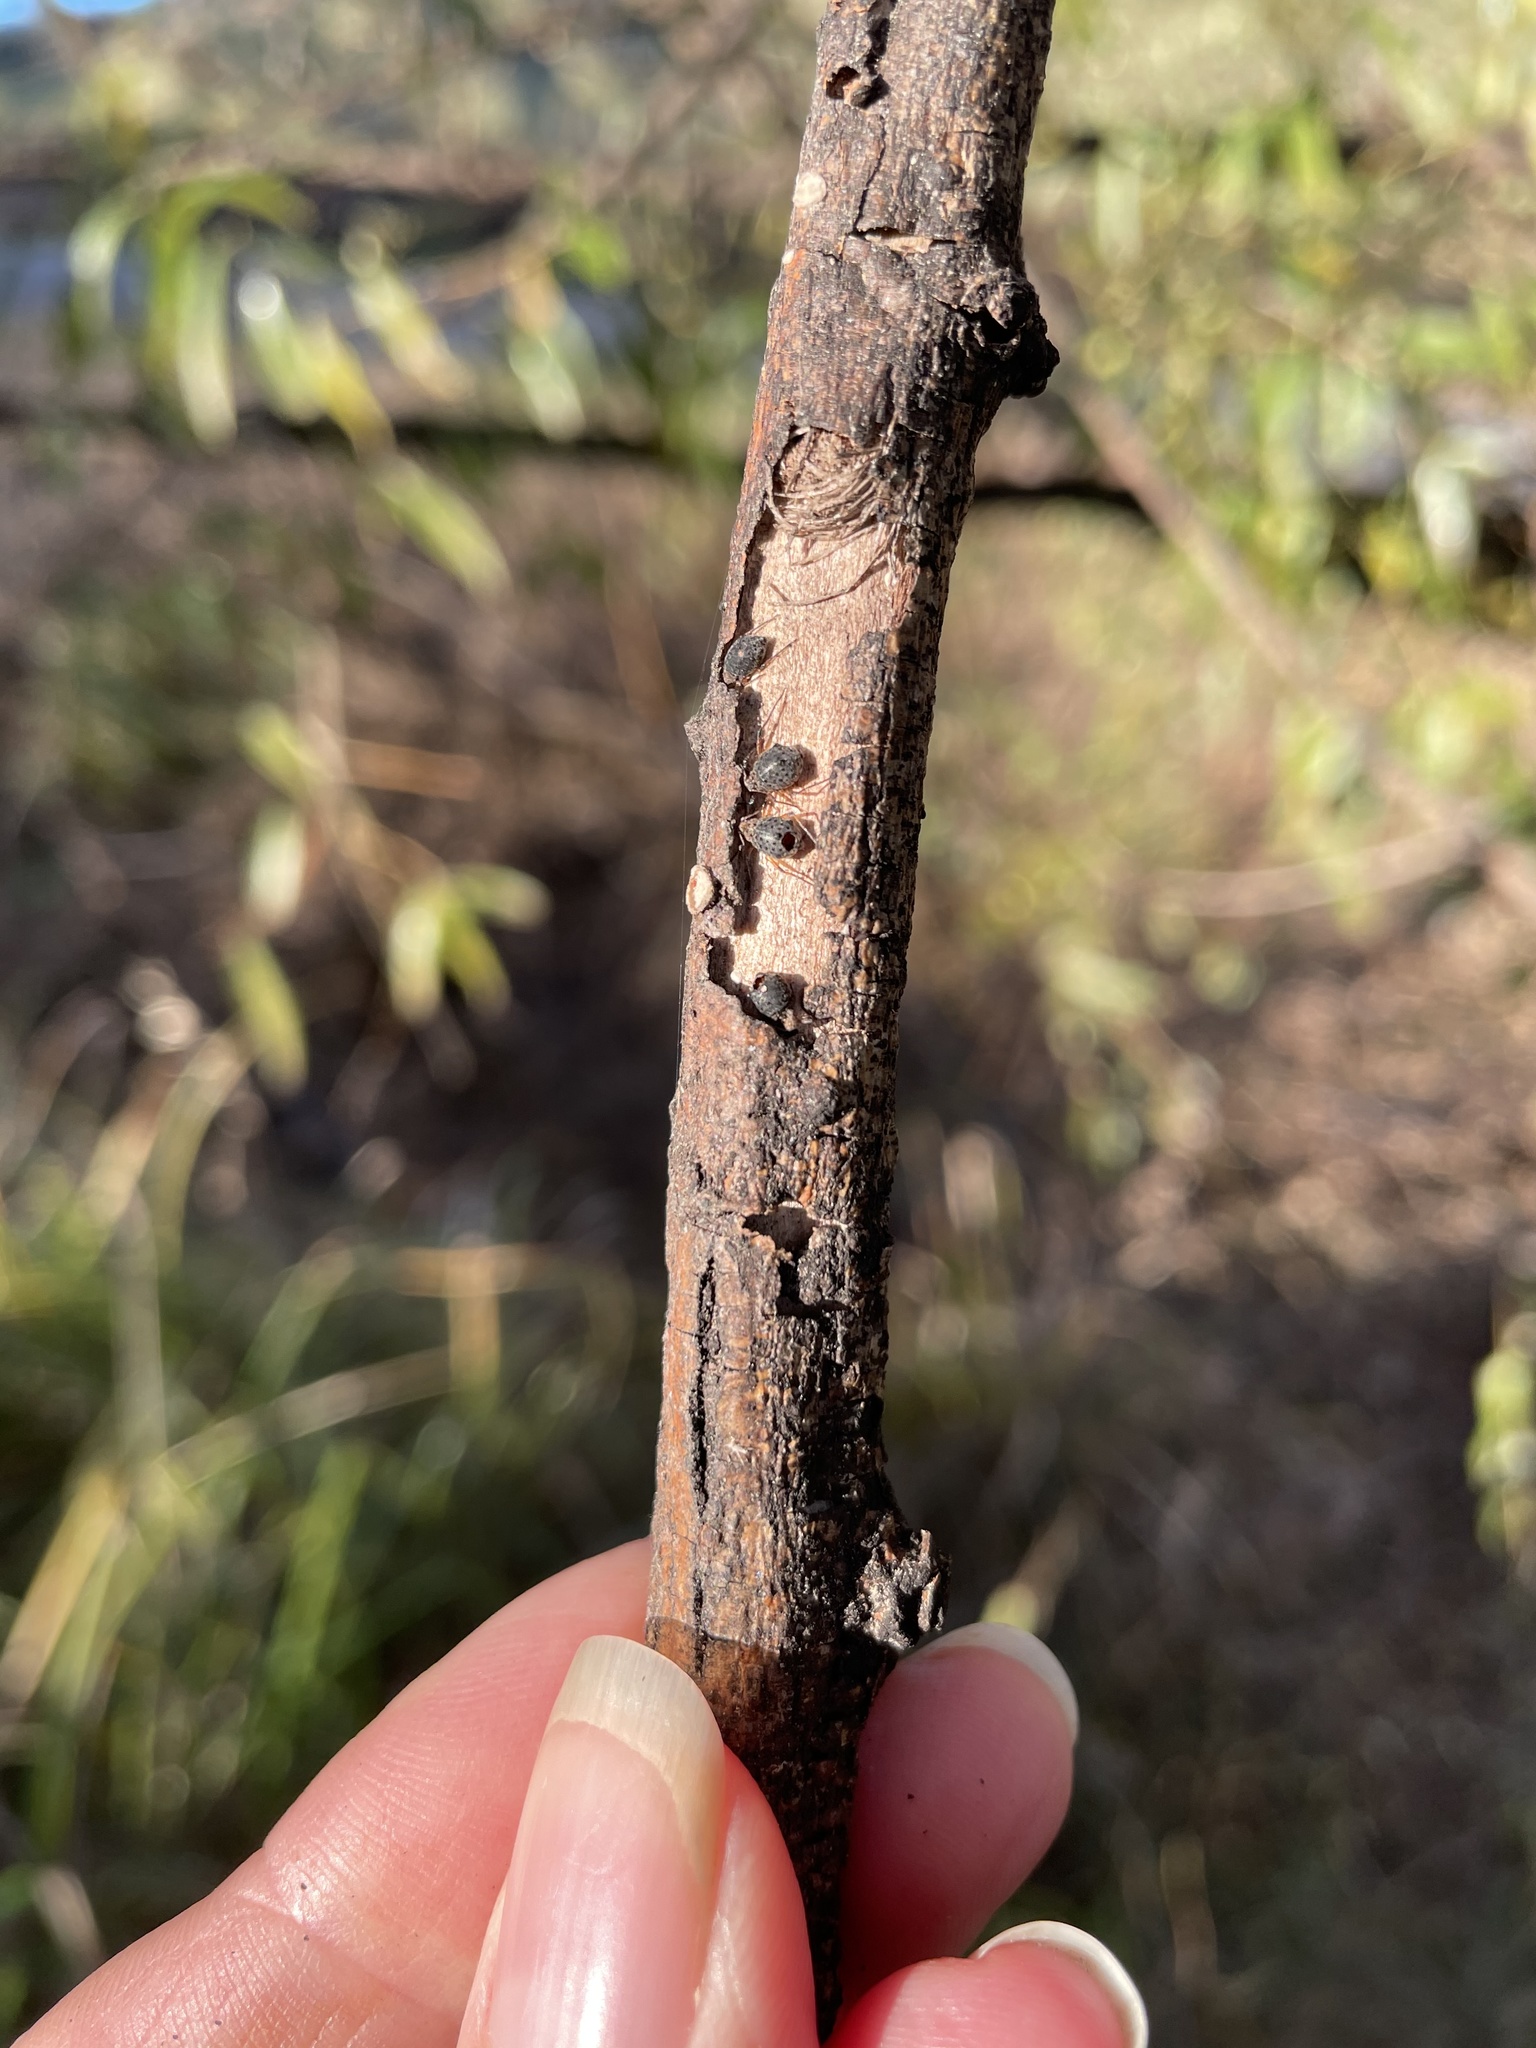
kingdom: Animalia
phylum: Arthropoda
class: Insecta
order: Hymenoptera
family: Braconidae
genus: Pauesia
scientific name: Pauesia nigrovaria
